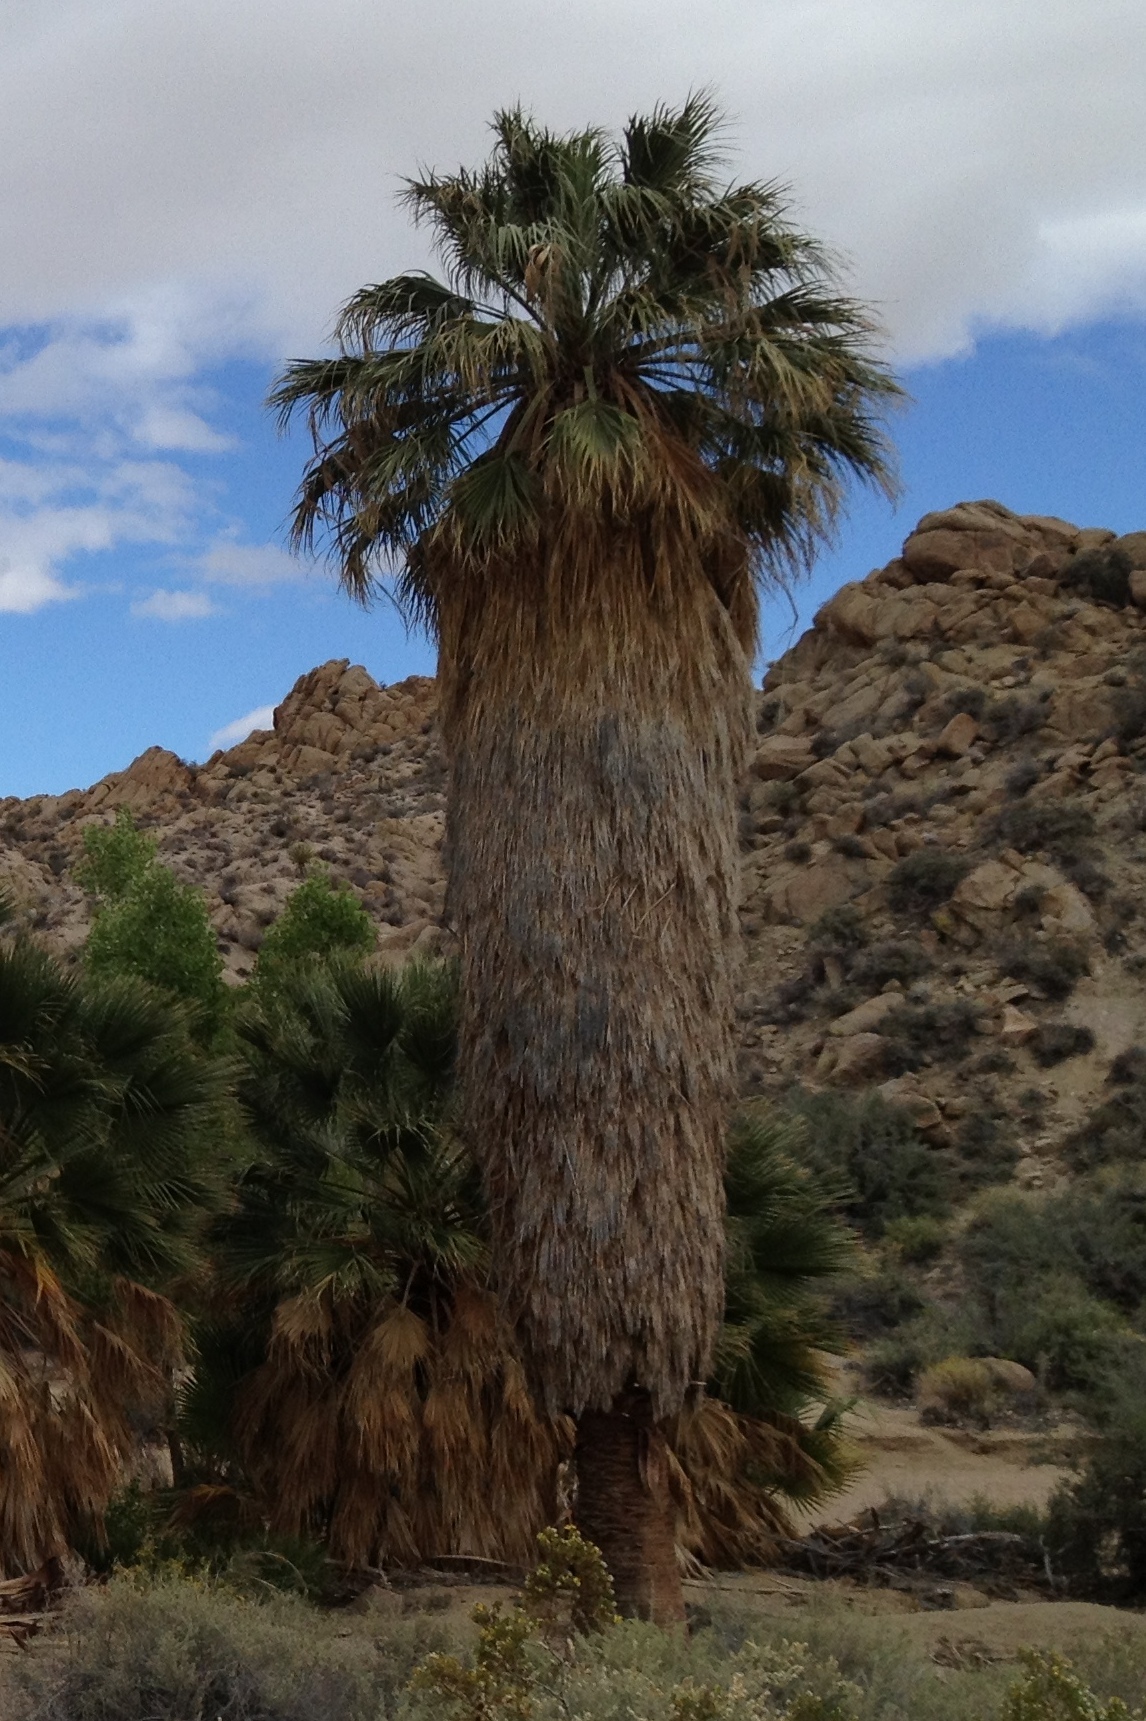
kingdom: Plantae
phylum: Tracheophyta
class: Liliopsida
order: Arecales
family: Arecaceae
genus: Washingtonia
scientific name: Washingtonia filifera
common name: California fan palm
